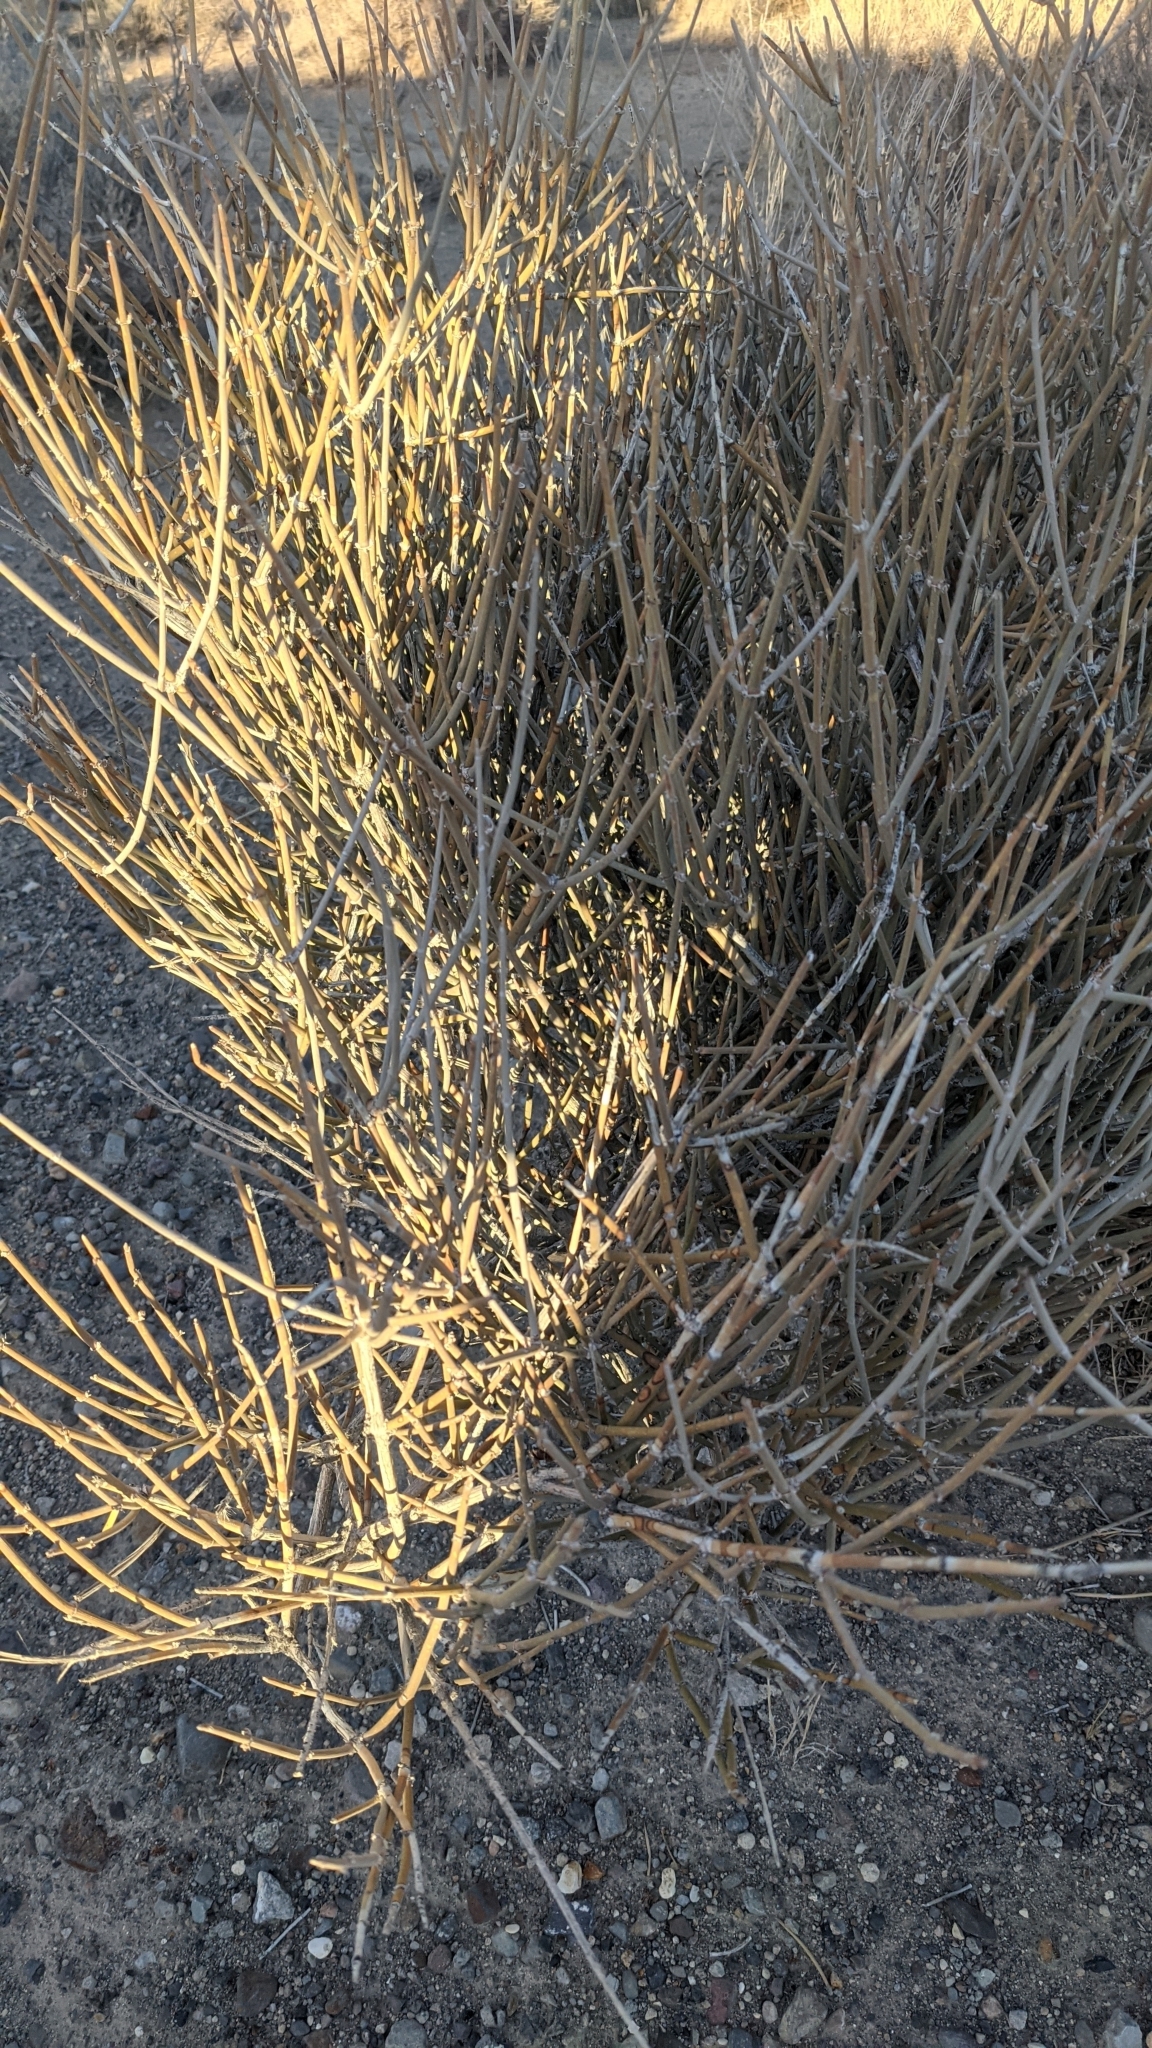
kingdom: Plantae
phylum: Tracheophyta
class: Gnetopsida
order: Ephedrales
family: Ephedraceae
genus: Ephedra
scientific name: Ephedra nevadensis
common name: Gray ephedra
